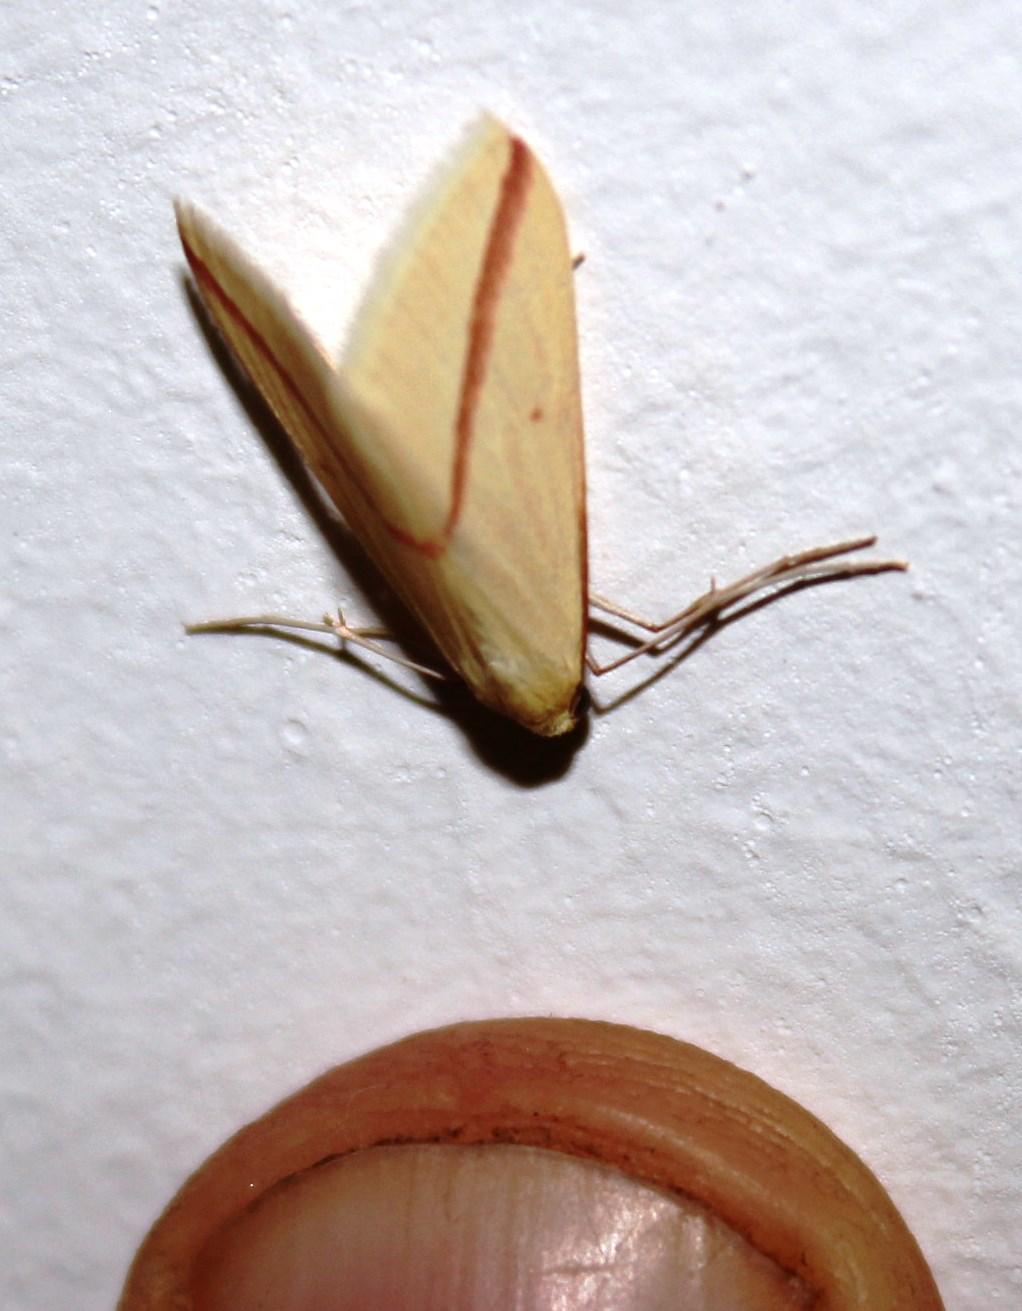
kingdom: Animalia
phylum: Arthropoda
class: Insecta
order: Lepidoptera
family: Geometridae
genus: Rhodometra
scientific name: Rhodometra sacraria
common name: Vestal
